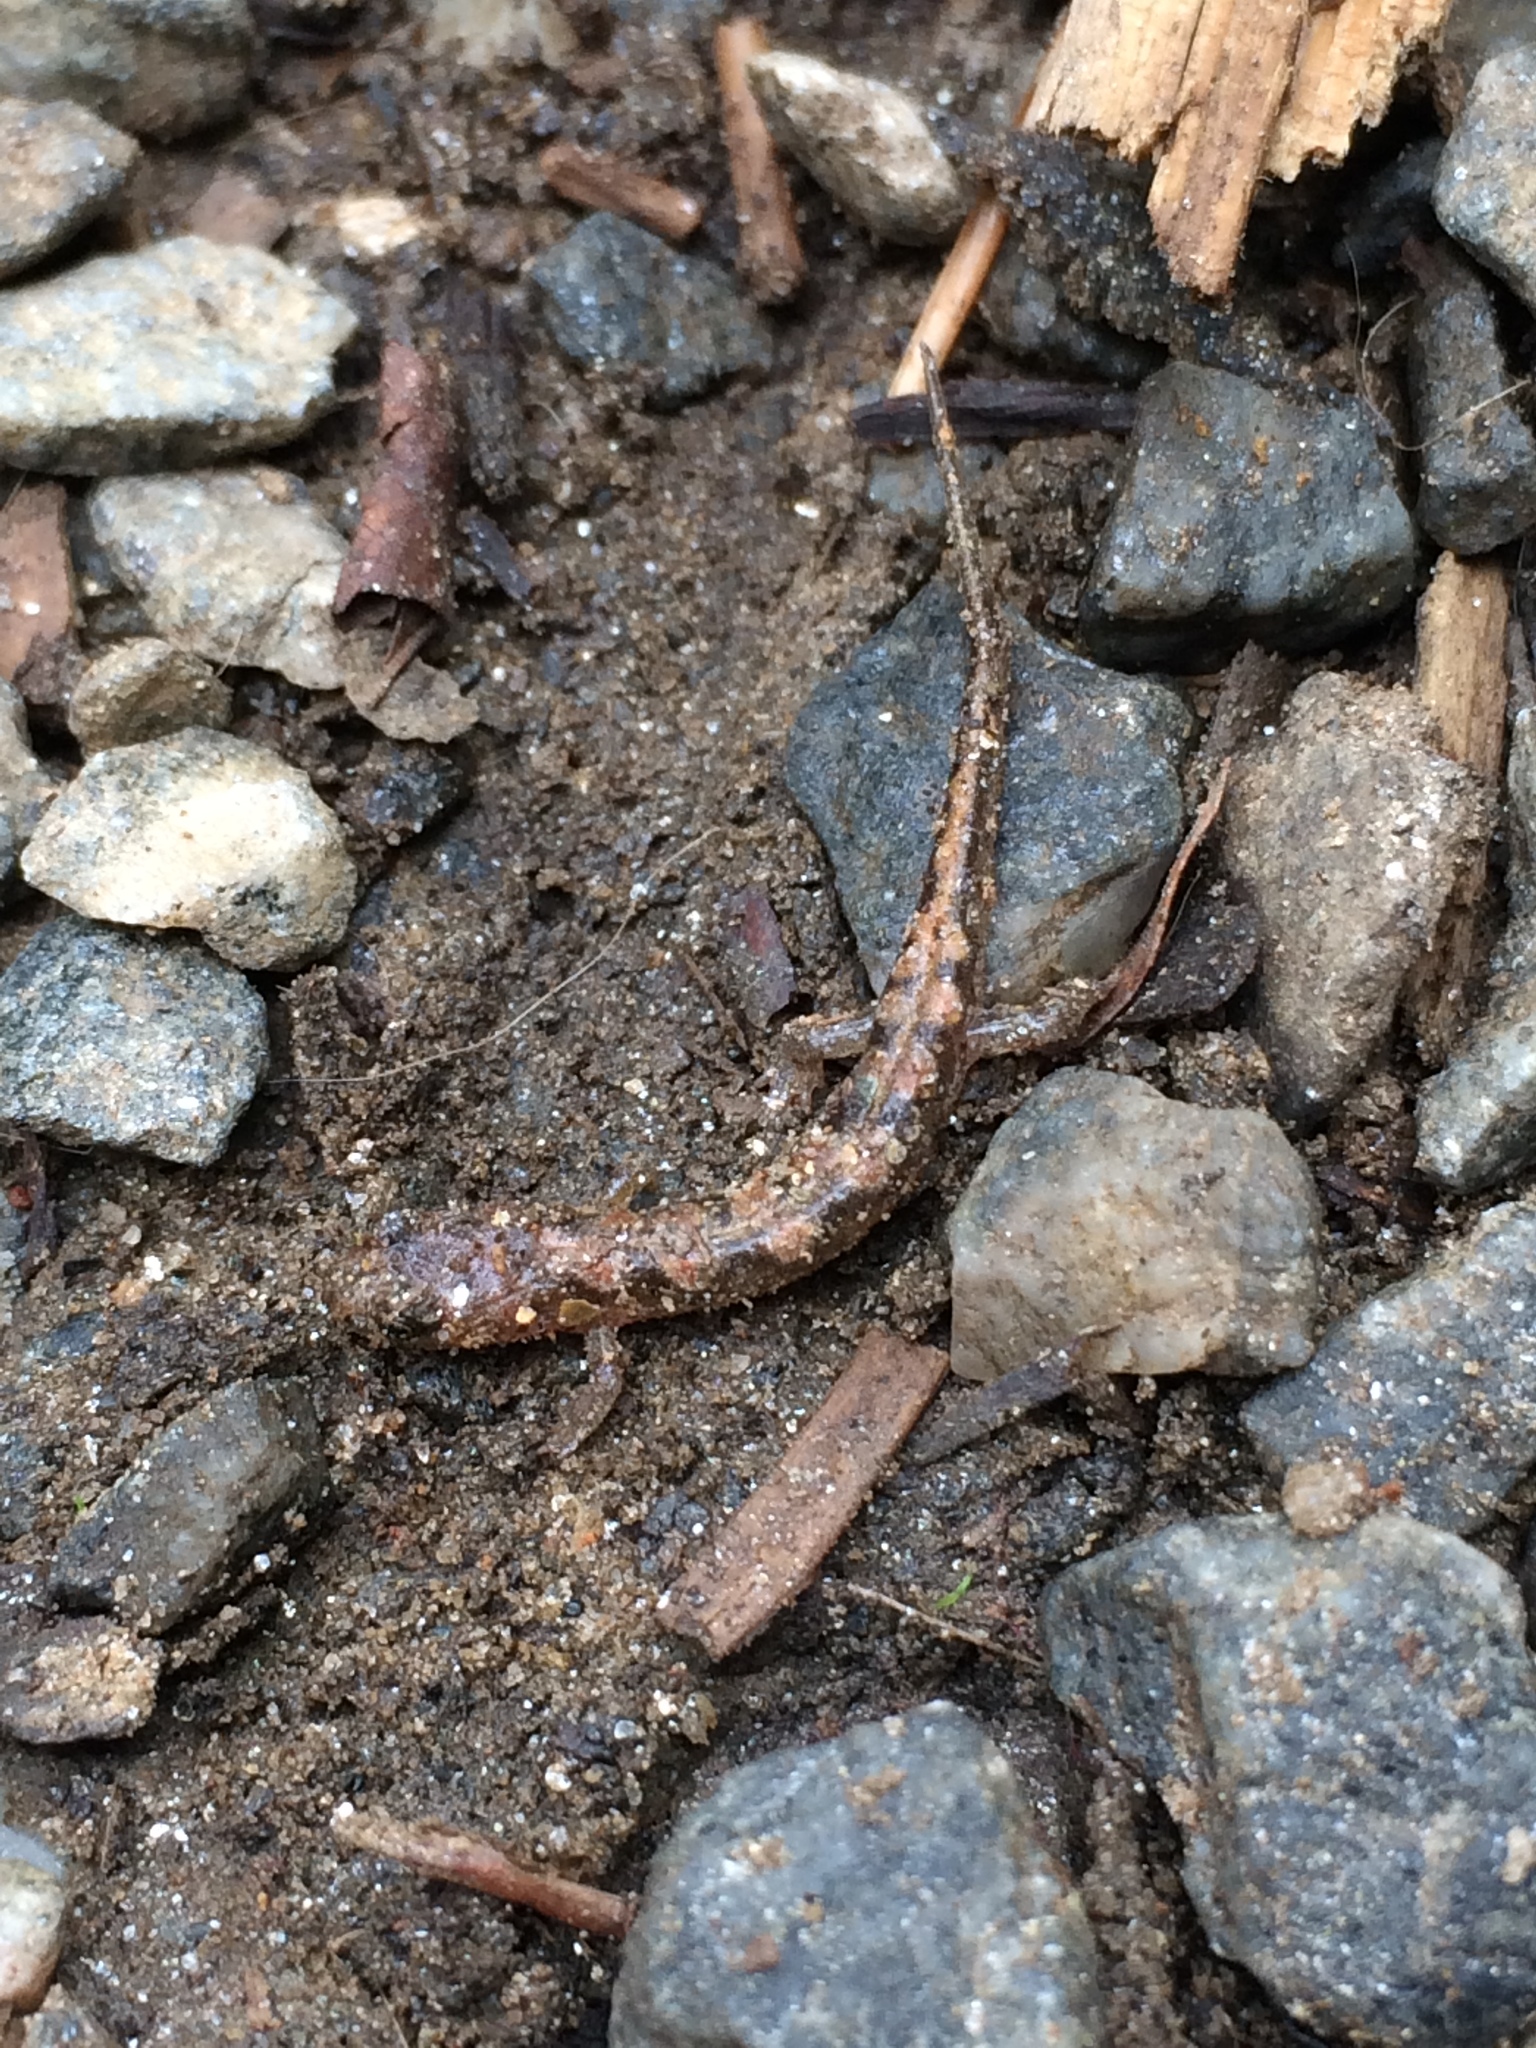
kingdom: Animalia
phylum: Chordata
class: Amphibia
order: Caudata
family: Plethodontidae
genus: Desmognathus
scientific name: Desmognathus monticola
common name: Seal salamander
